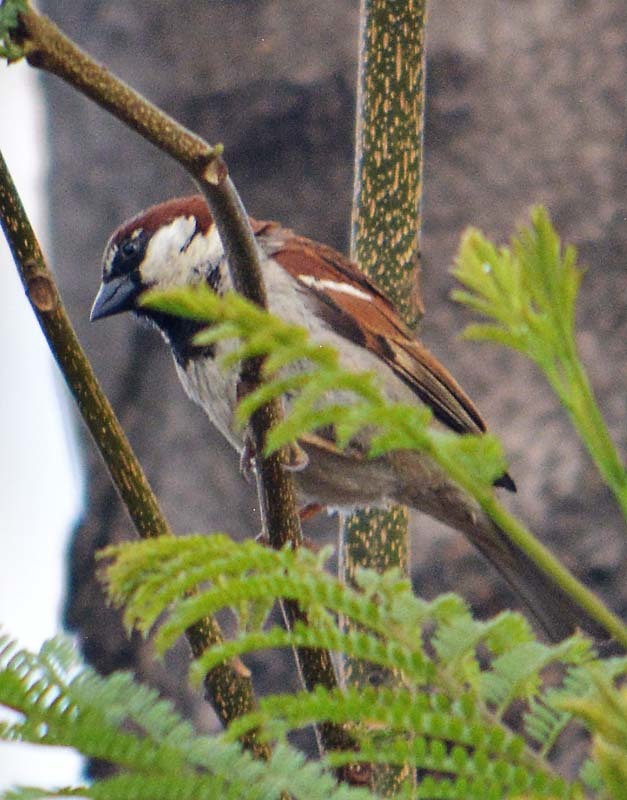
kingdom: Animalia
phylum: Chordata
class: Aves
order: Passeriformes
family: Passeridae
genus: Passer
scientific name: Passer domesticus
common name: House sparrow
